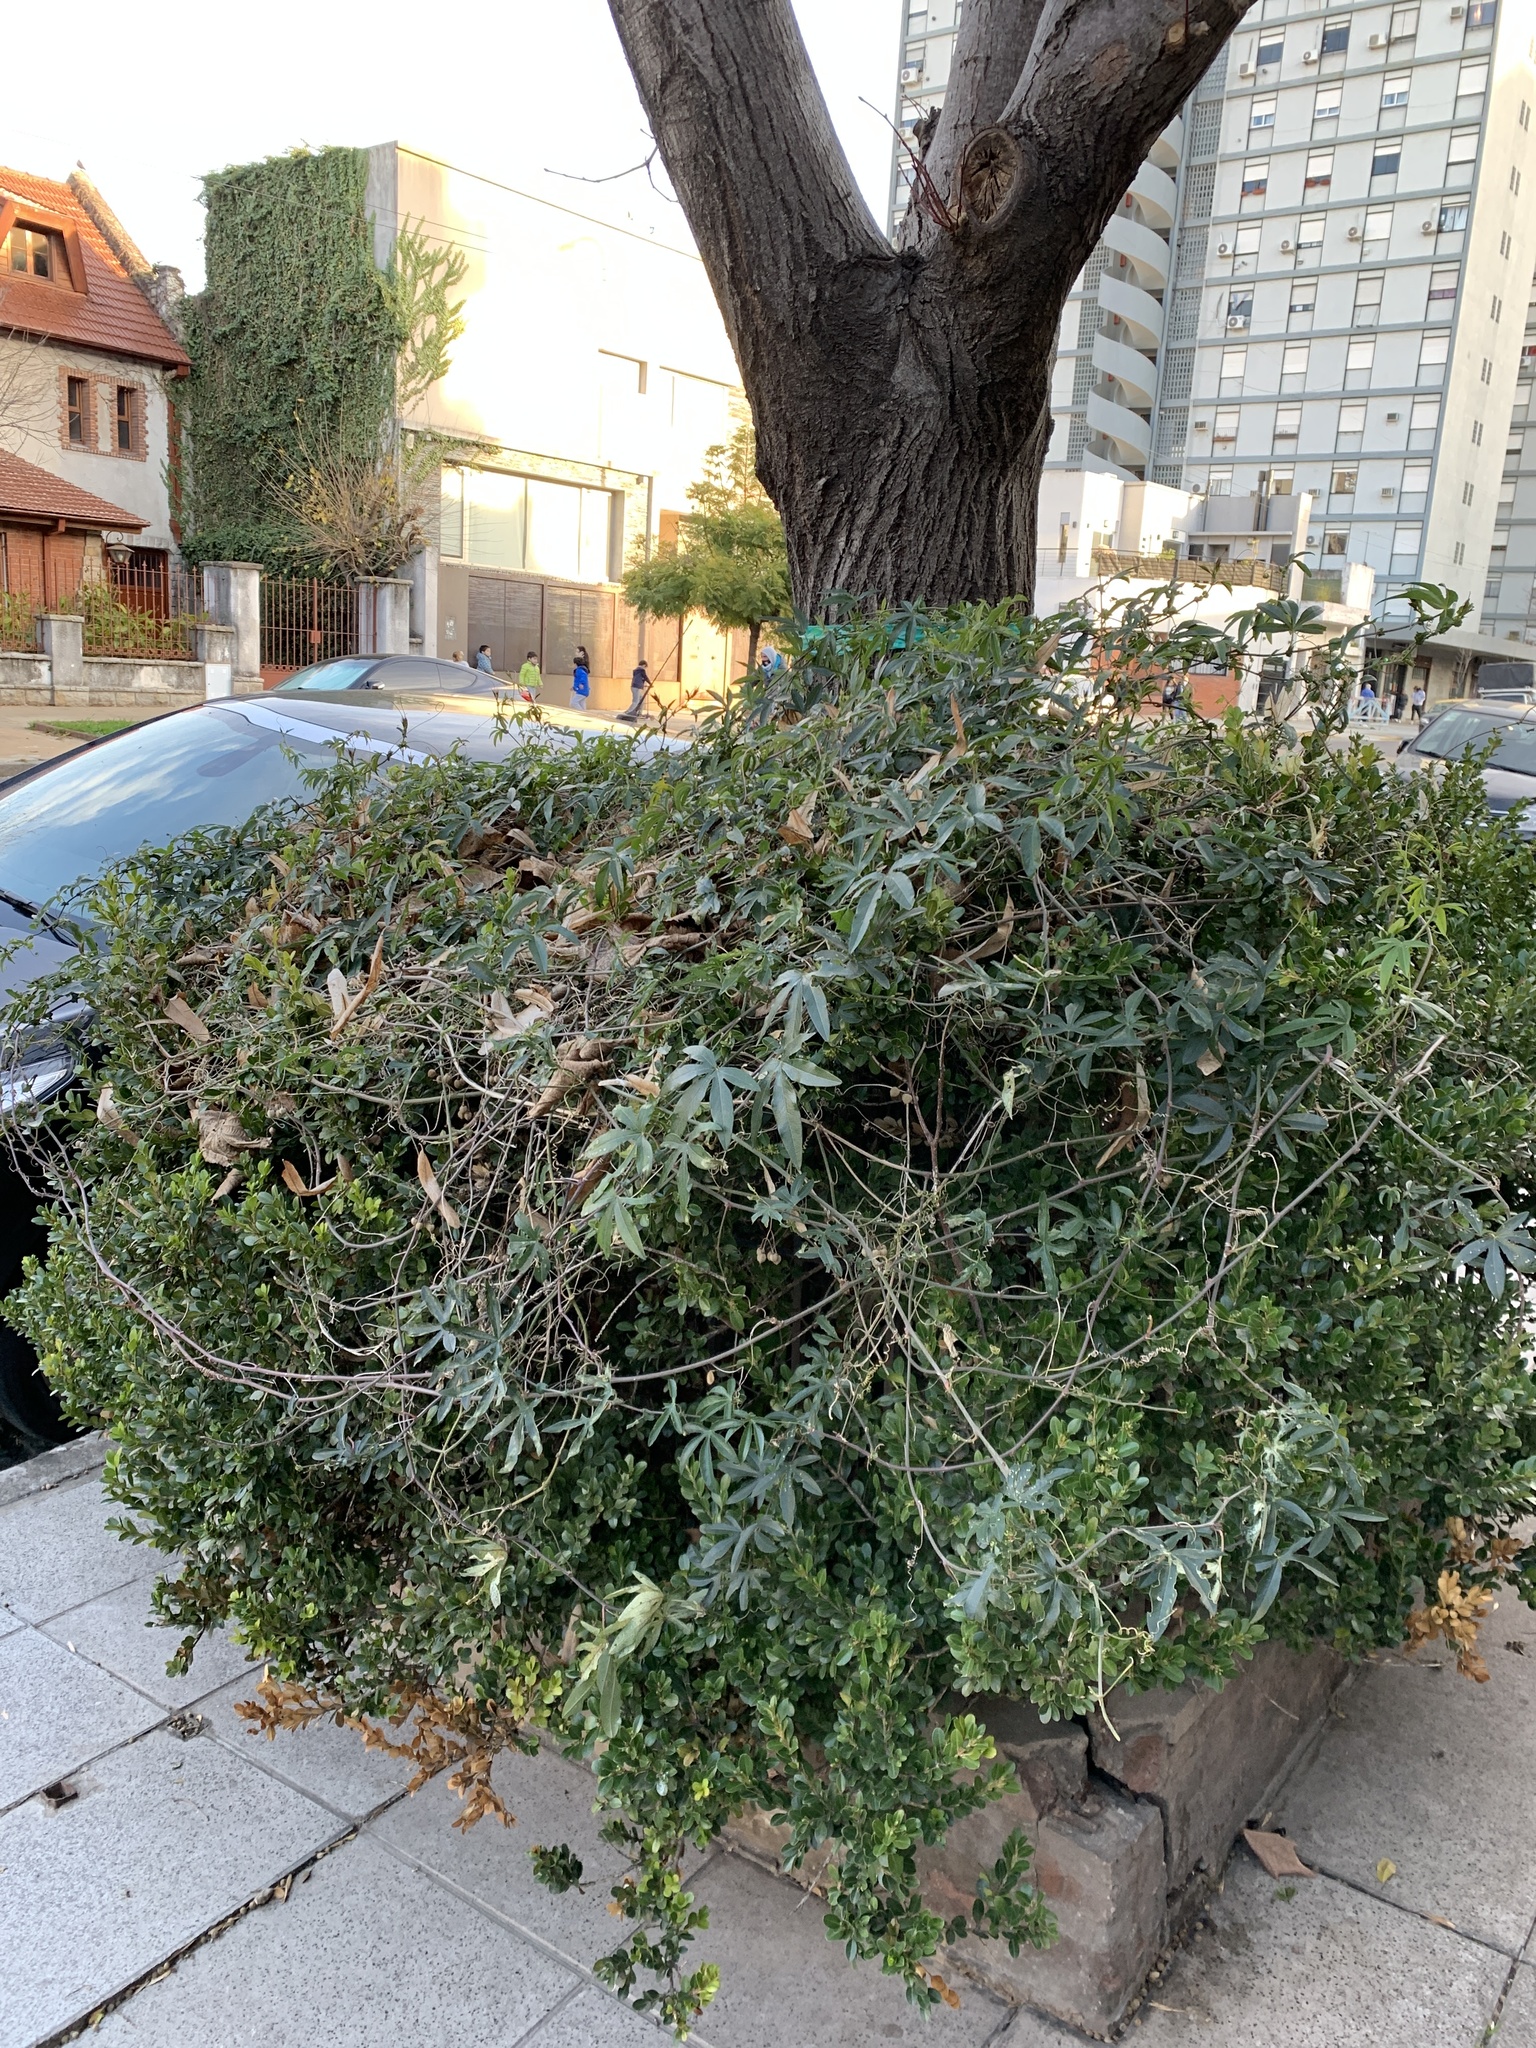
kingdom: Plantae
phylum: Tracheophyta
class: Magnoliopsida
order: Malpighiales
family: Passifloraceae
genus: Passiflora
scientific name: Passiflora caerulea
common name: Blue passionflower
